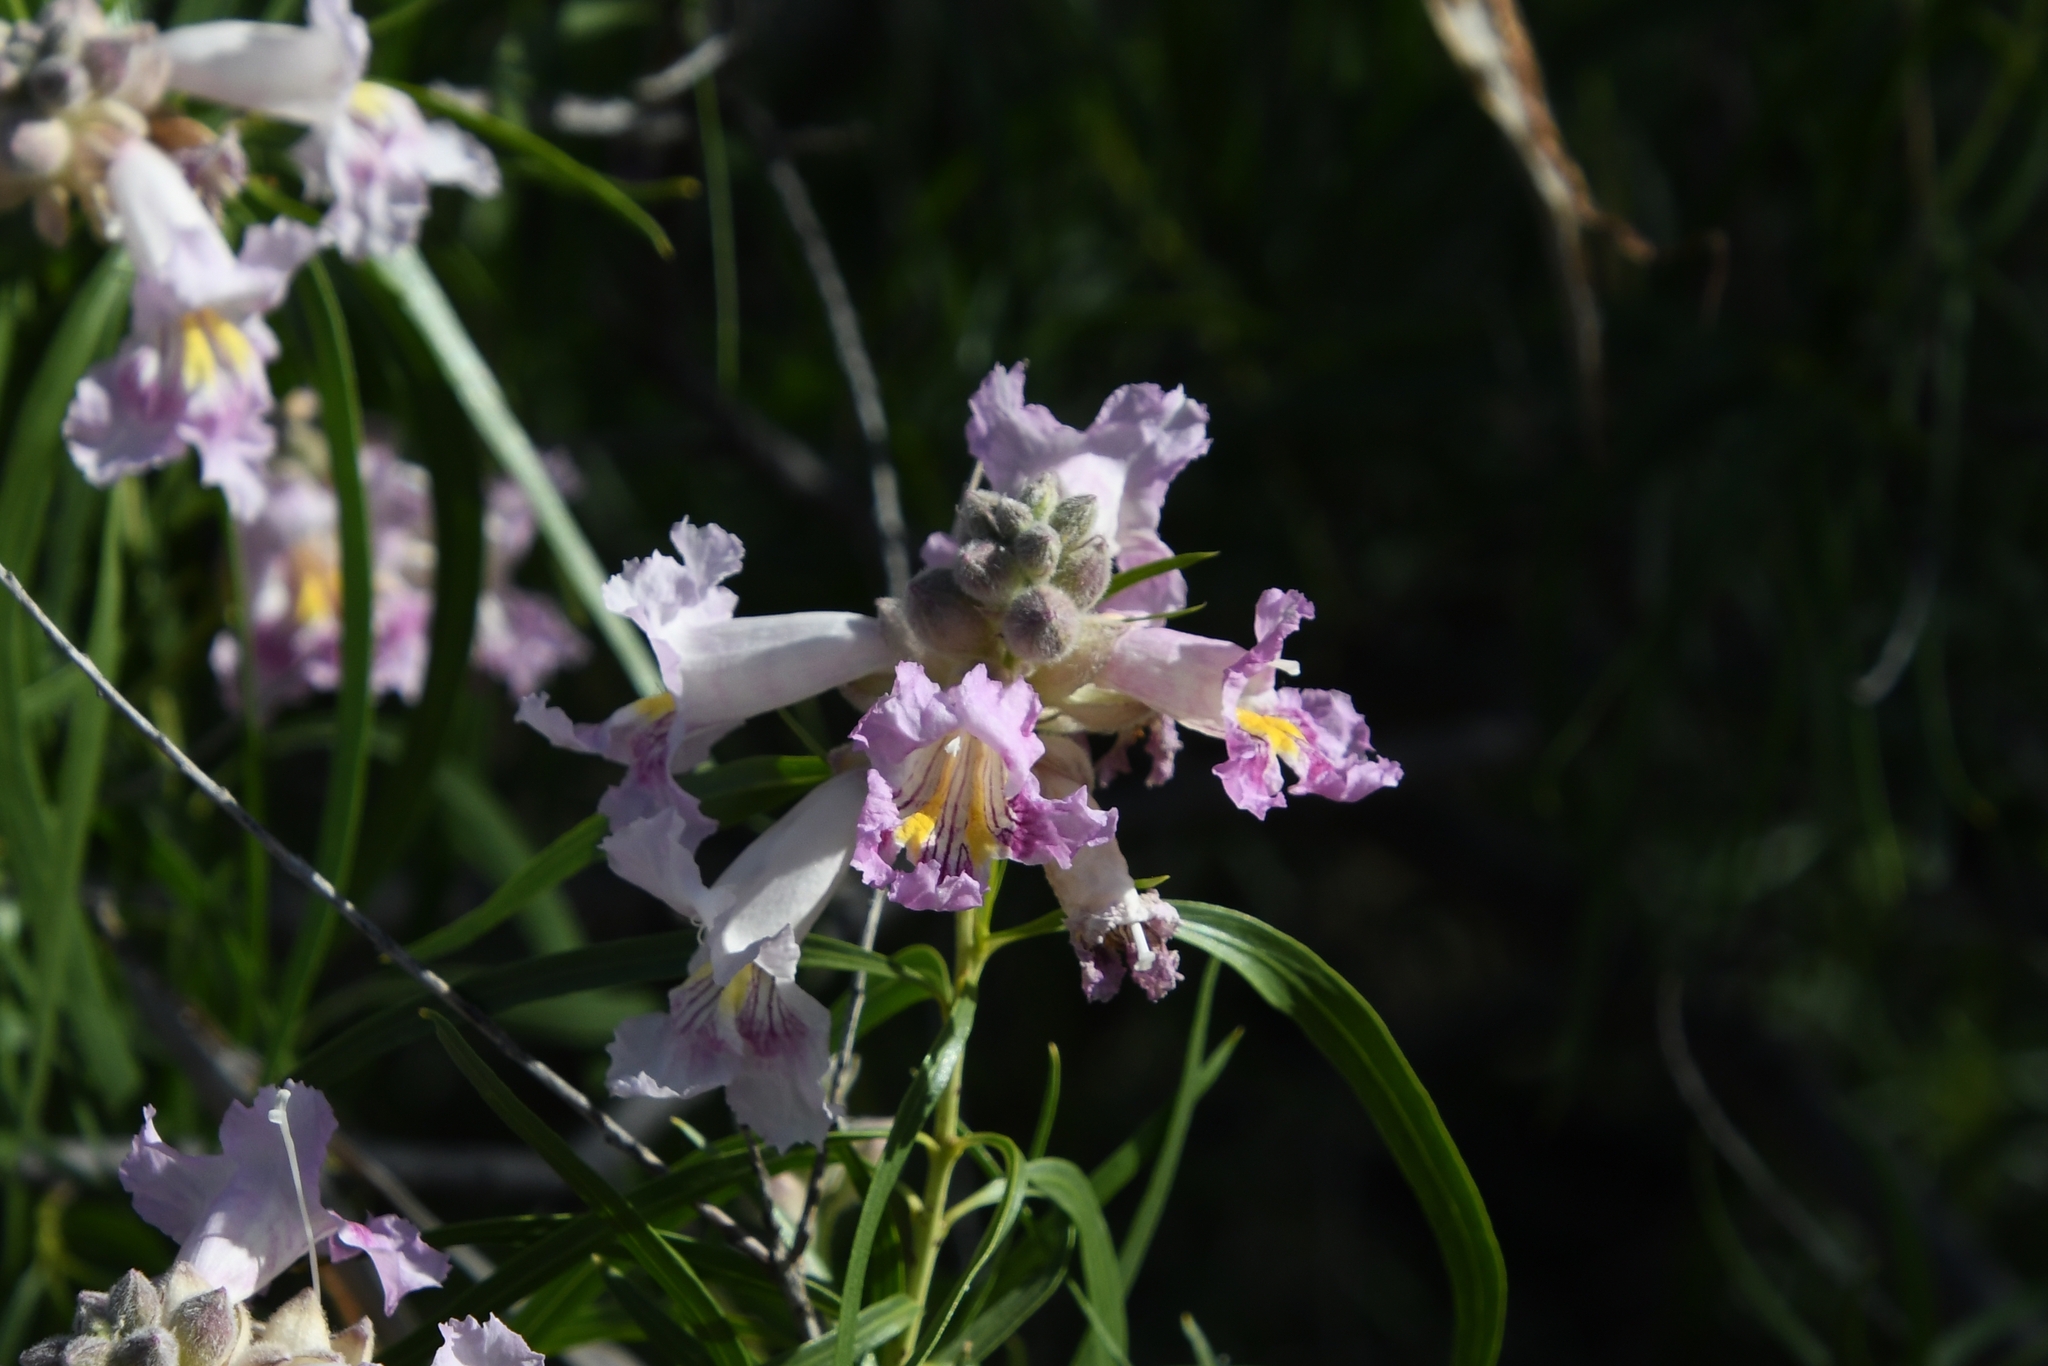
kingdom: Plantae
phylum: Tracheophyta
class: Magnoliopsida
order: Lamiales
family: Bignoniaceae
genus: Chilopsis
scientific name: Chilopsis linearis
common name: Desert-willow
